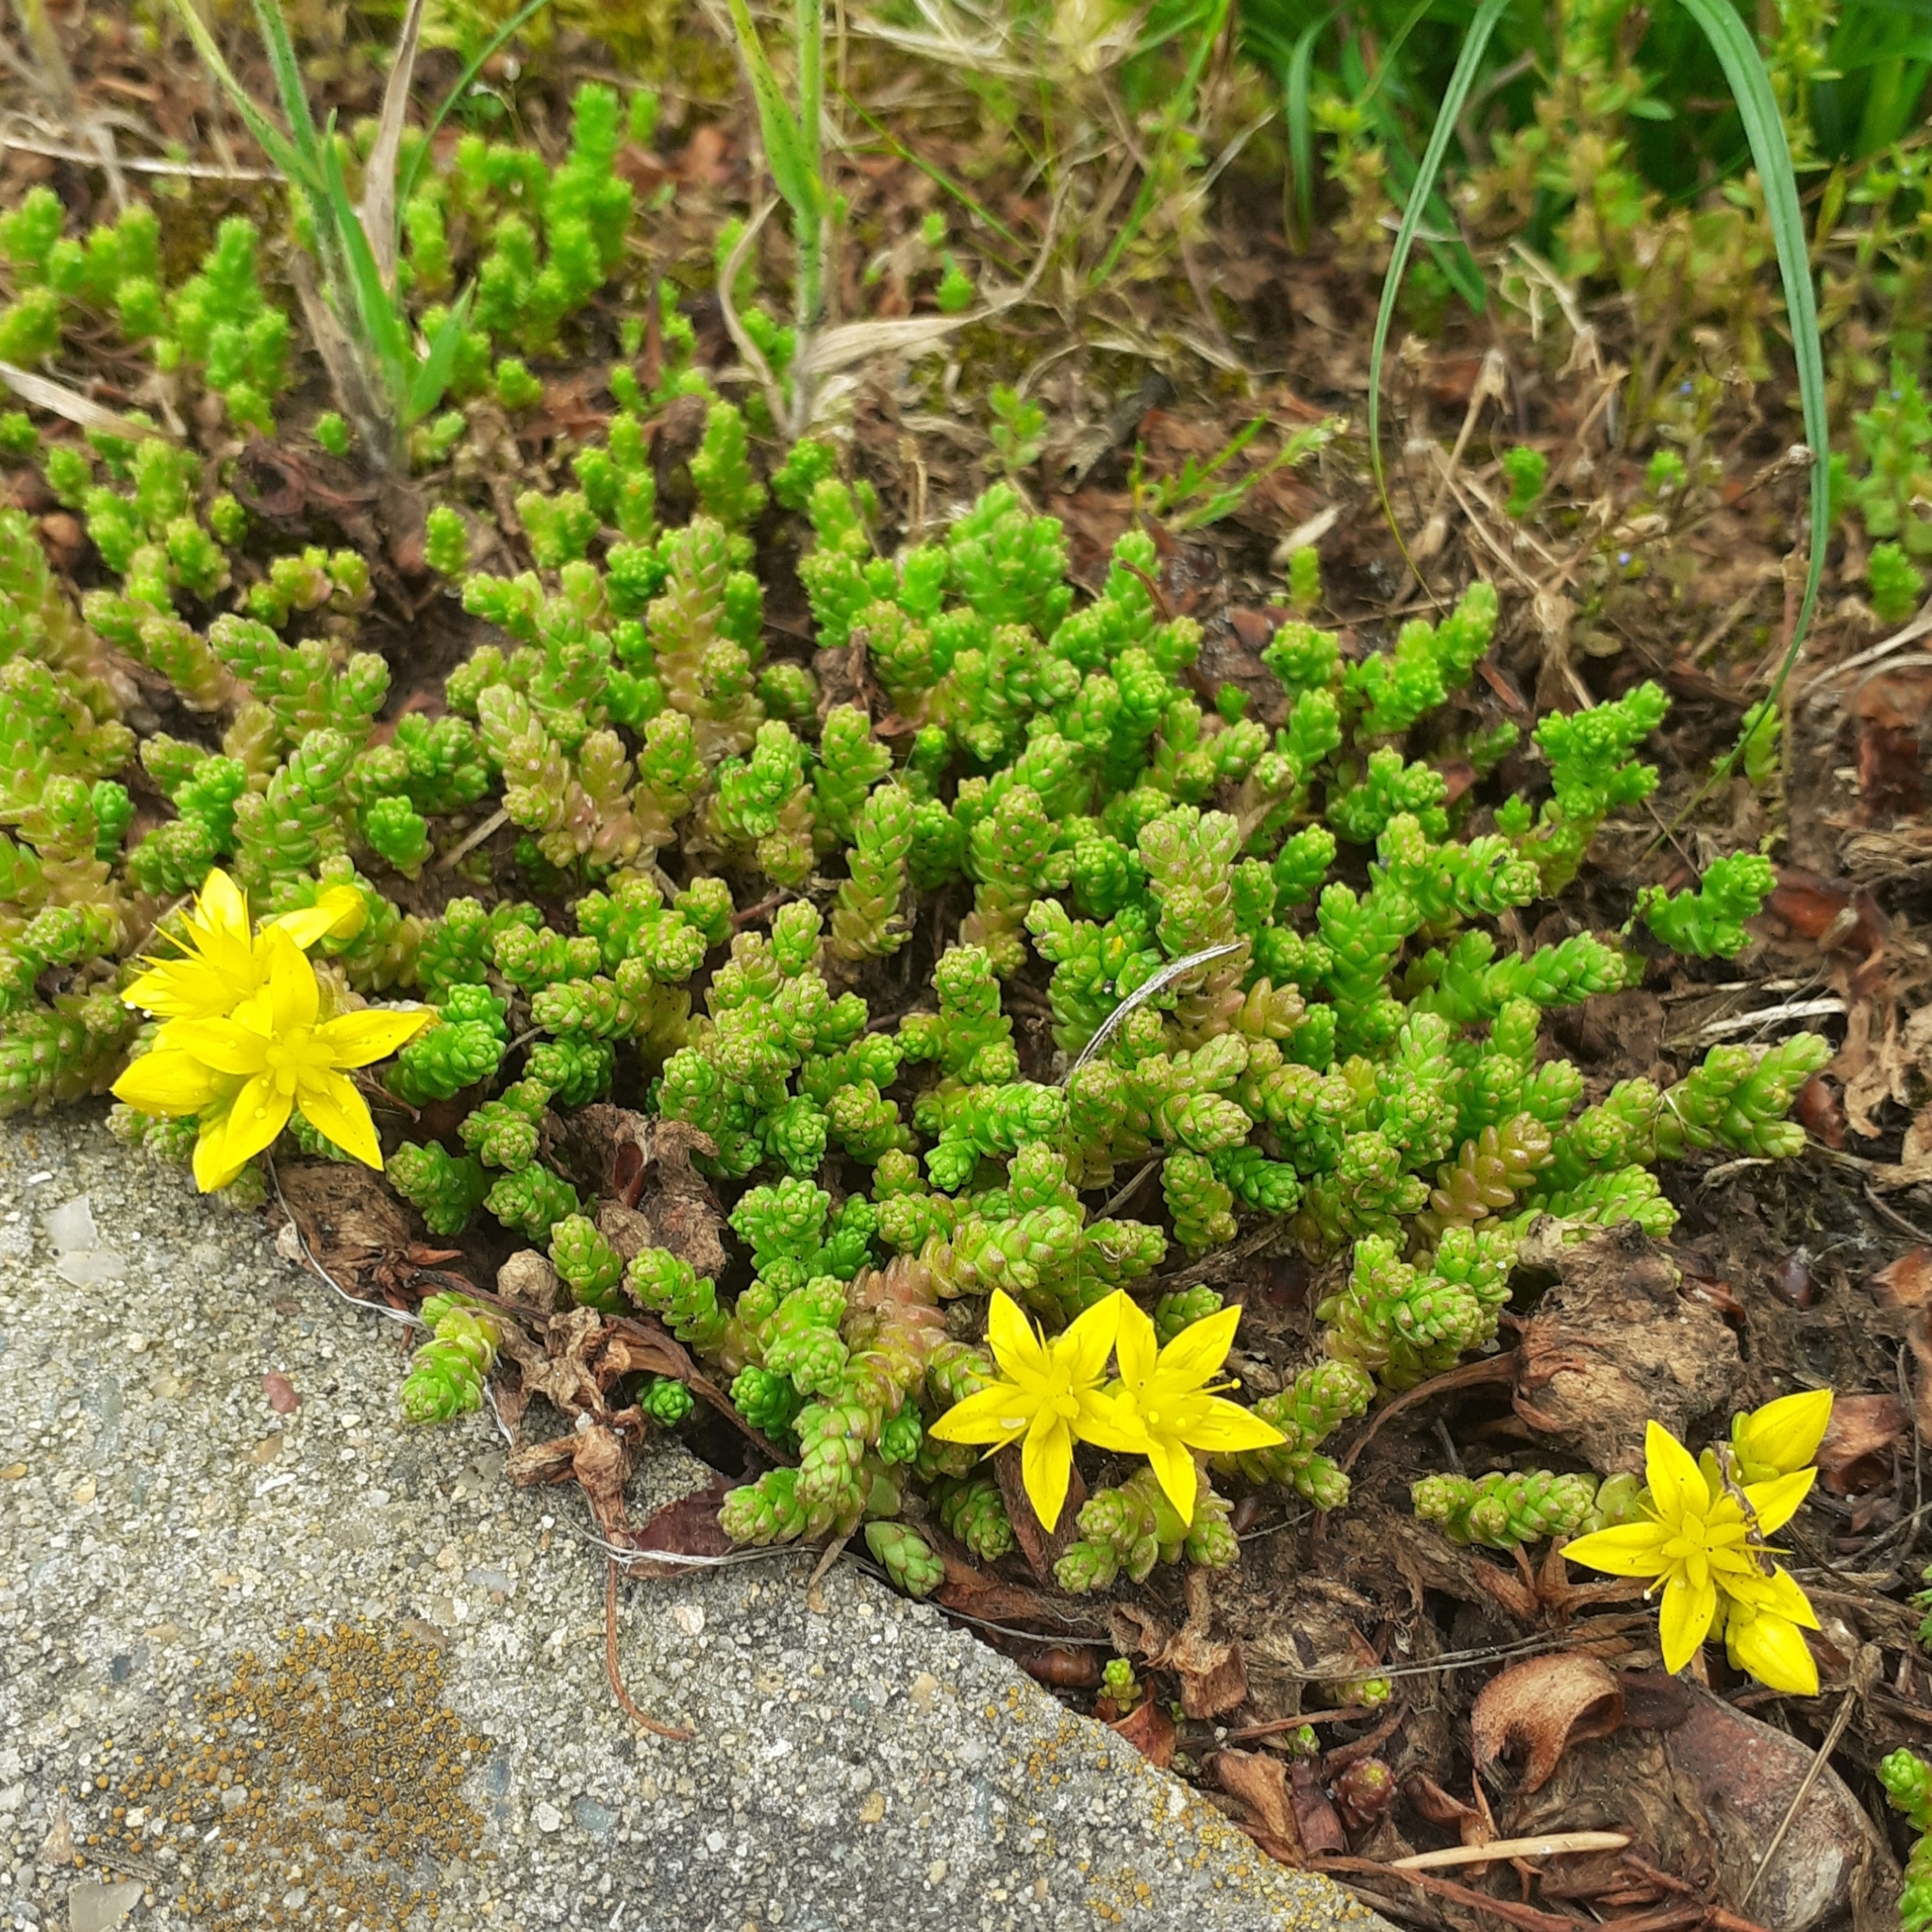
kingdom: Plantae
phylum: Tracheophyta
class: Magnoliopsida
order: Saxifragales
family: Crassulaceae
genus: Sedum
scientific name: Sedum acre
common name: Biting stonecrop
